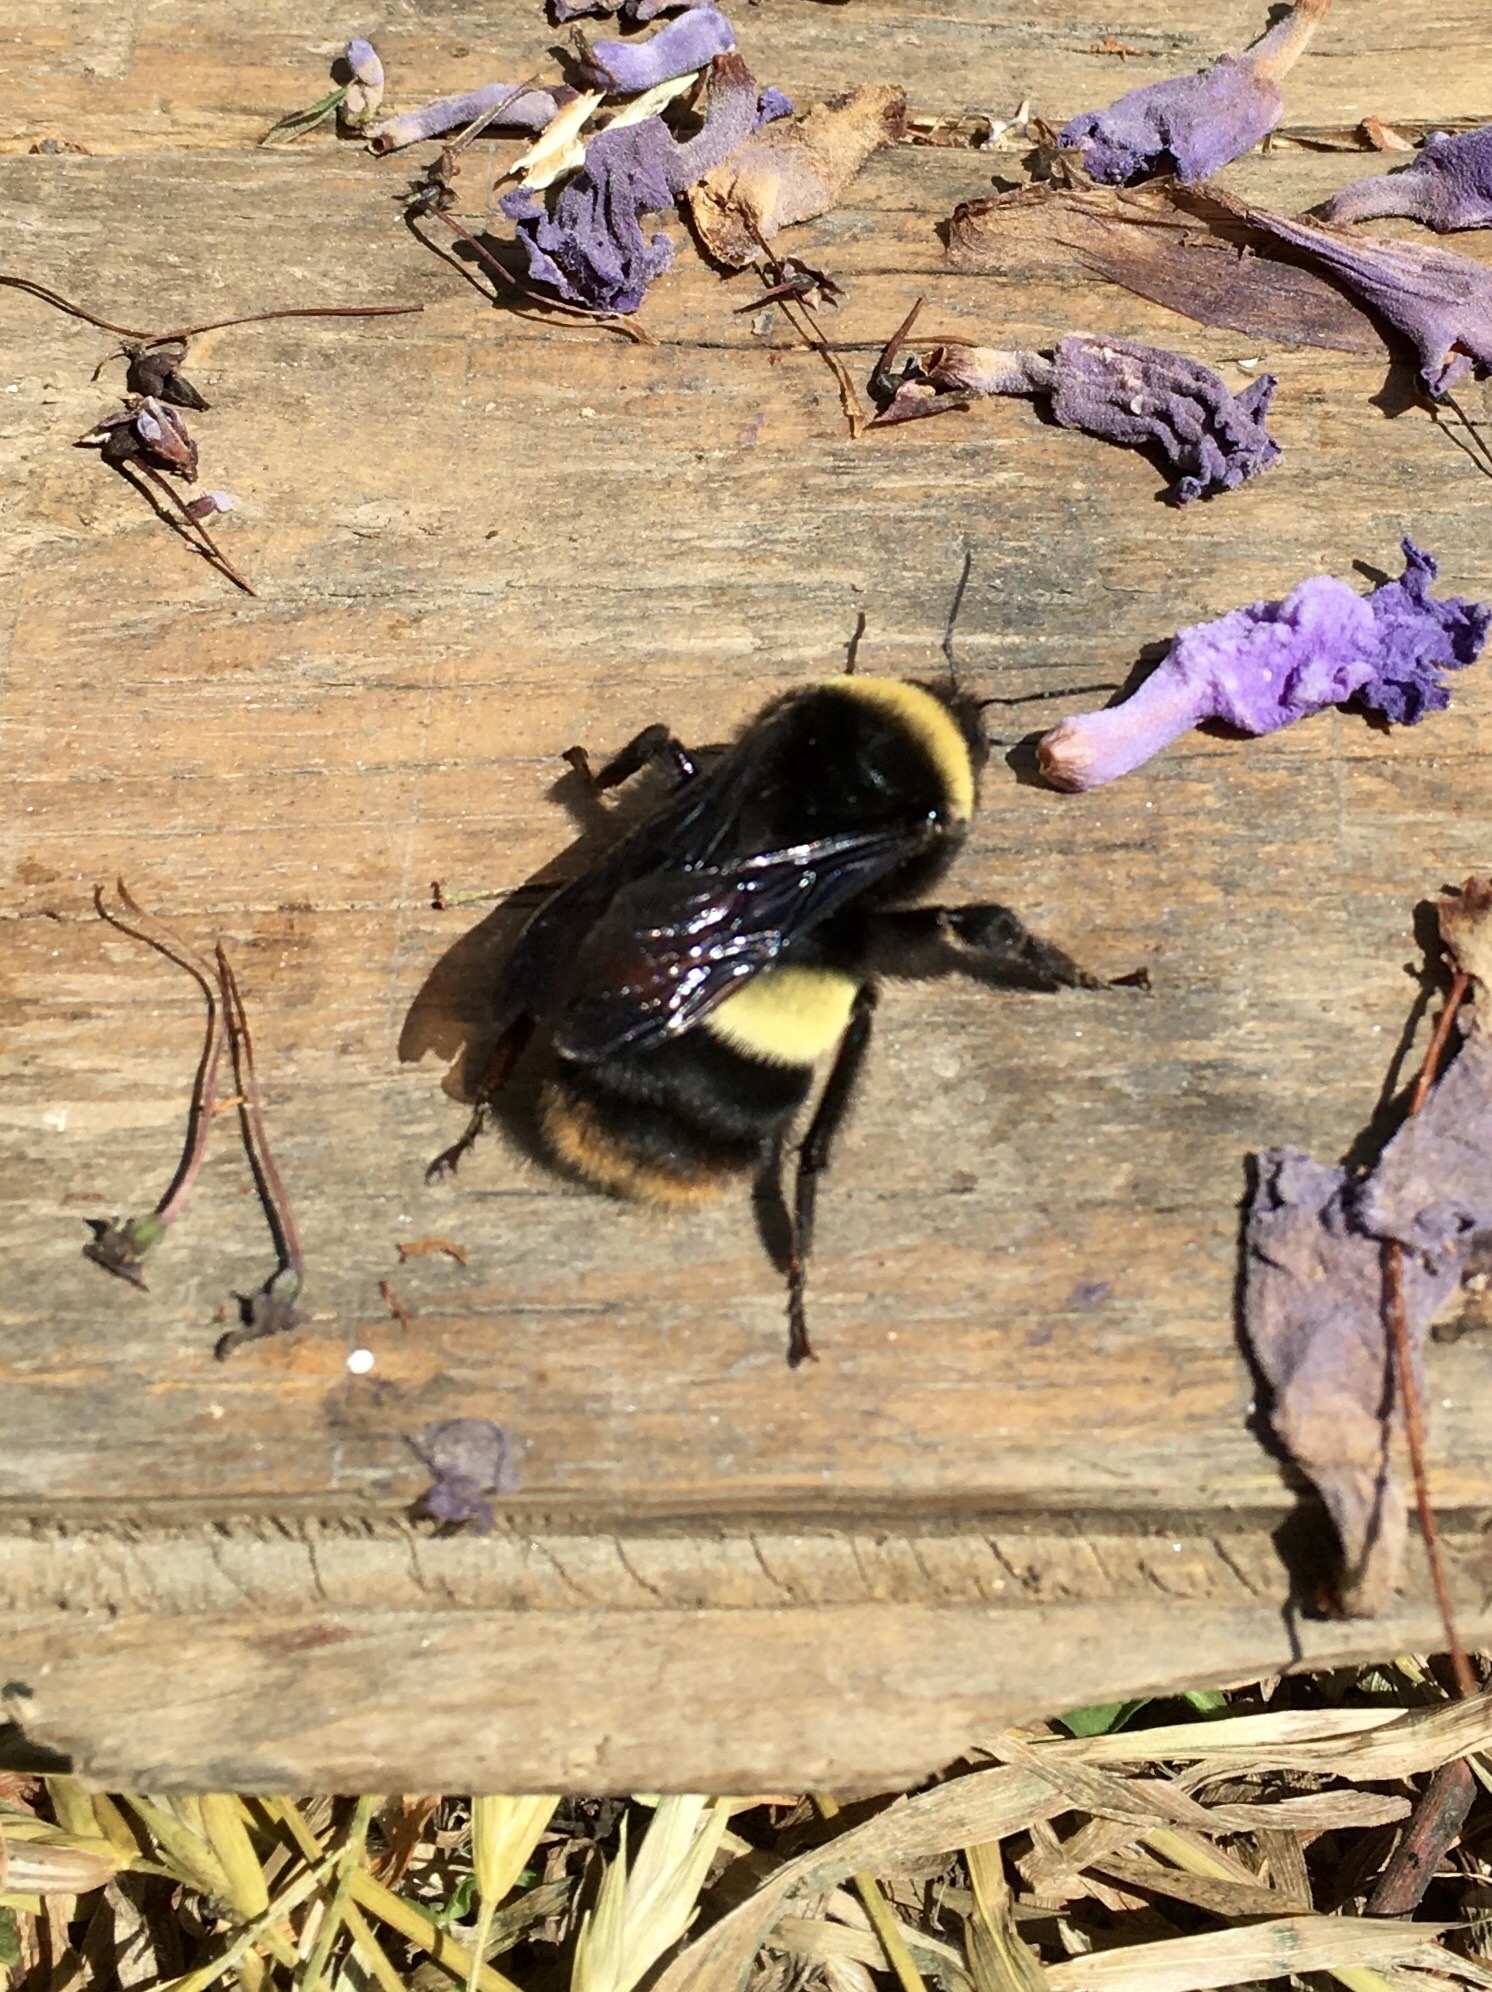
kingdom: Animalia
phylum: Arthropoda
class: Insecta
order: Hymenoptera
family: Apidae
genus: Bombus
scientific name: Bombus crotchii
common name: Crotch bumble bee
